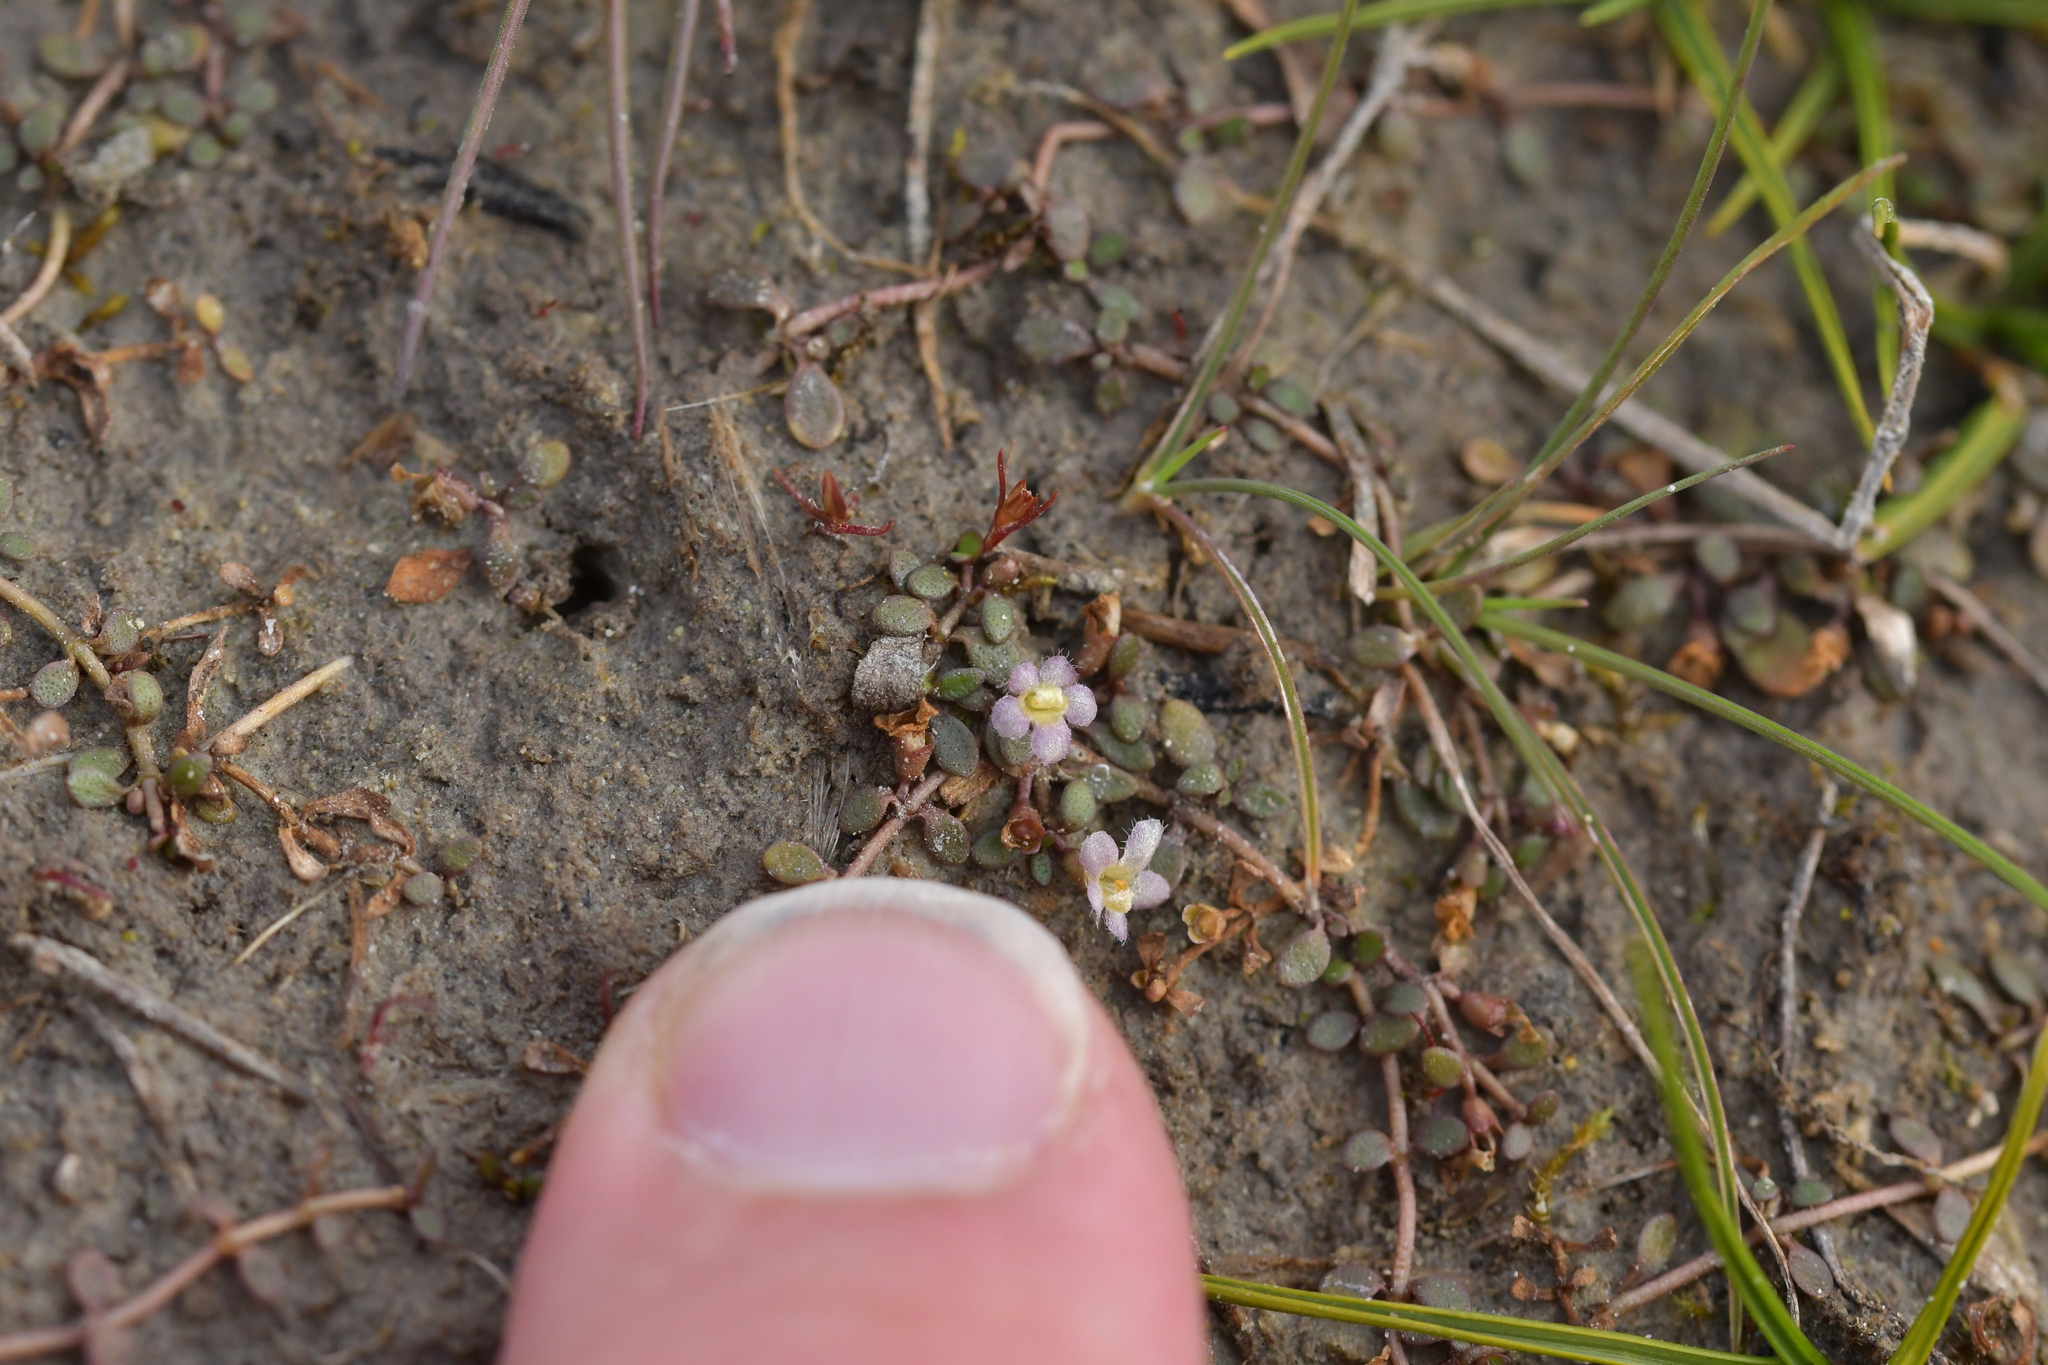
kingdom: Plantae
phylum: Tracheophyta
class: Magnoliopsida
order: Lamiales
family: Phrymaceae
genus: Glossostigma
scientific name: Glossostigma elatinoides
